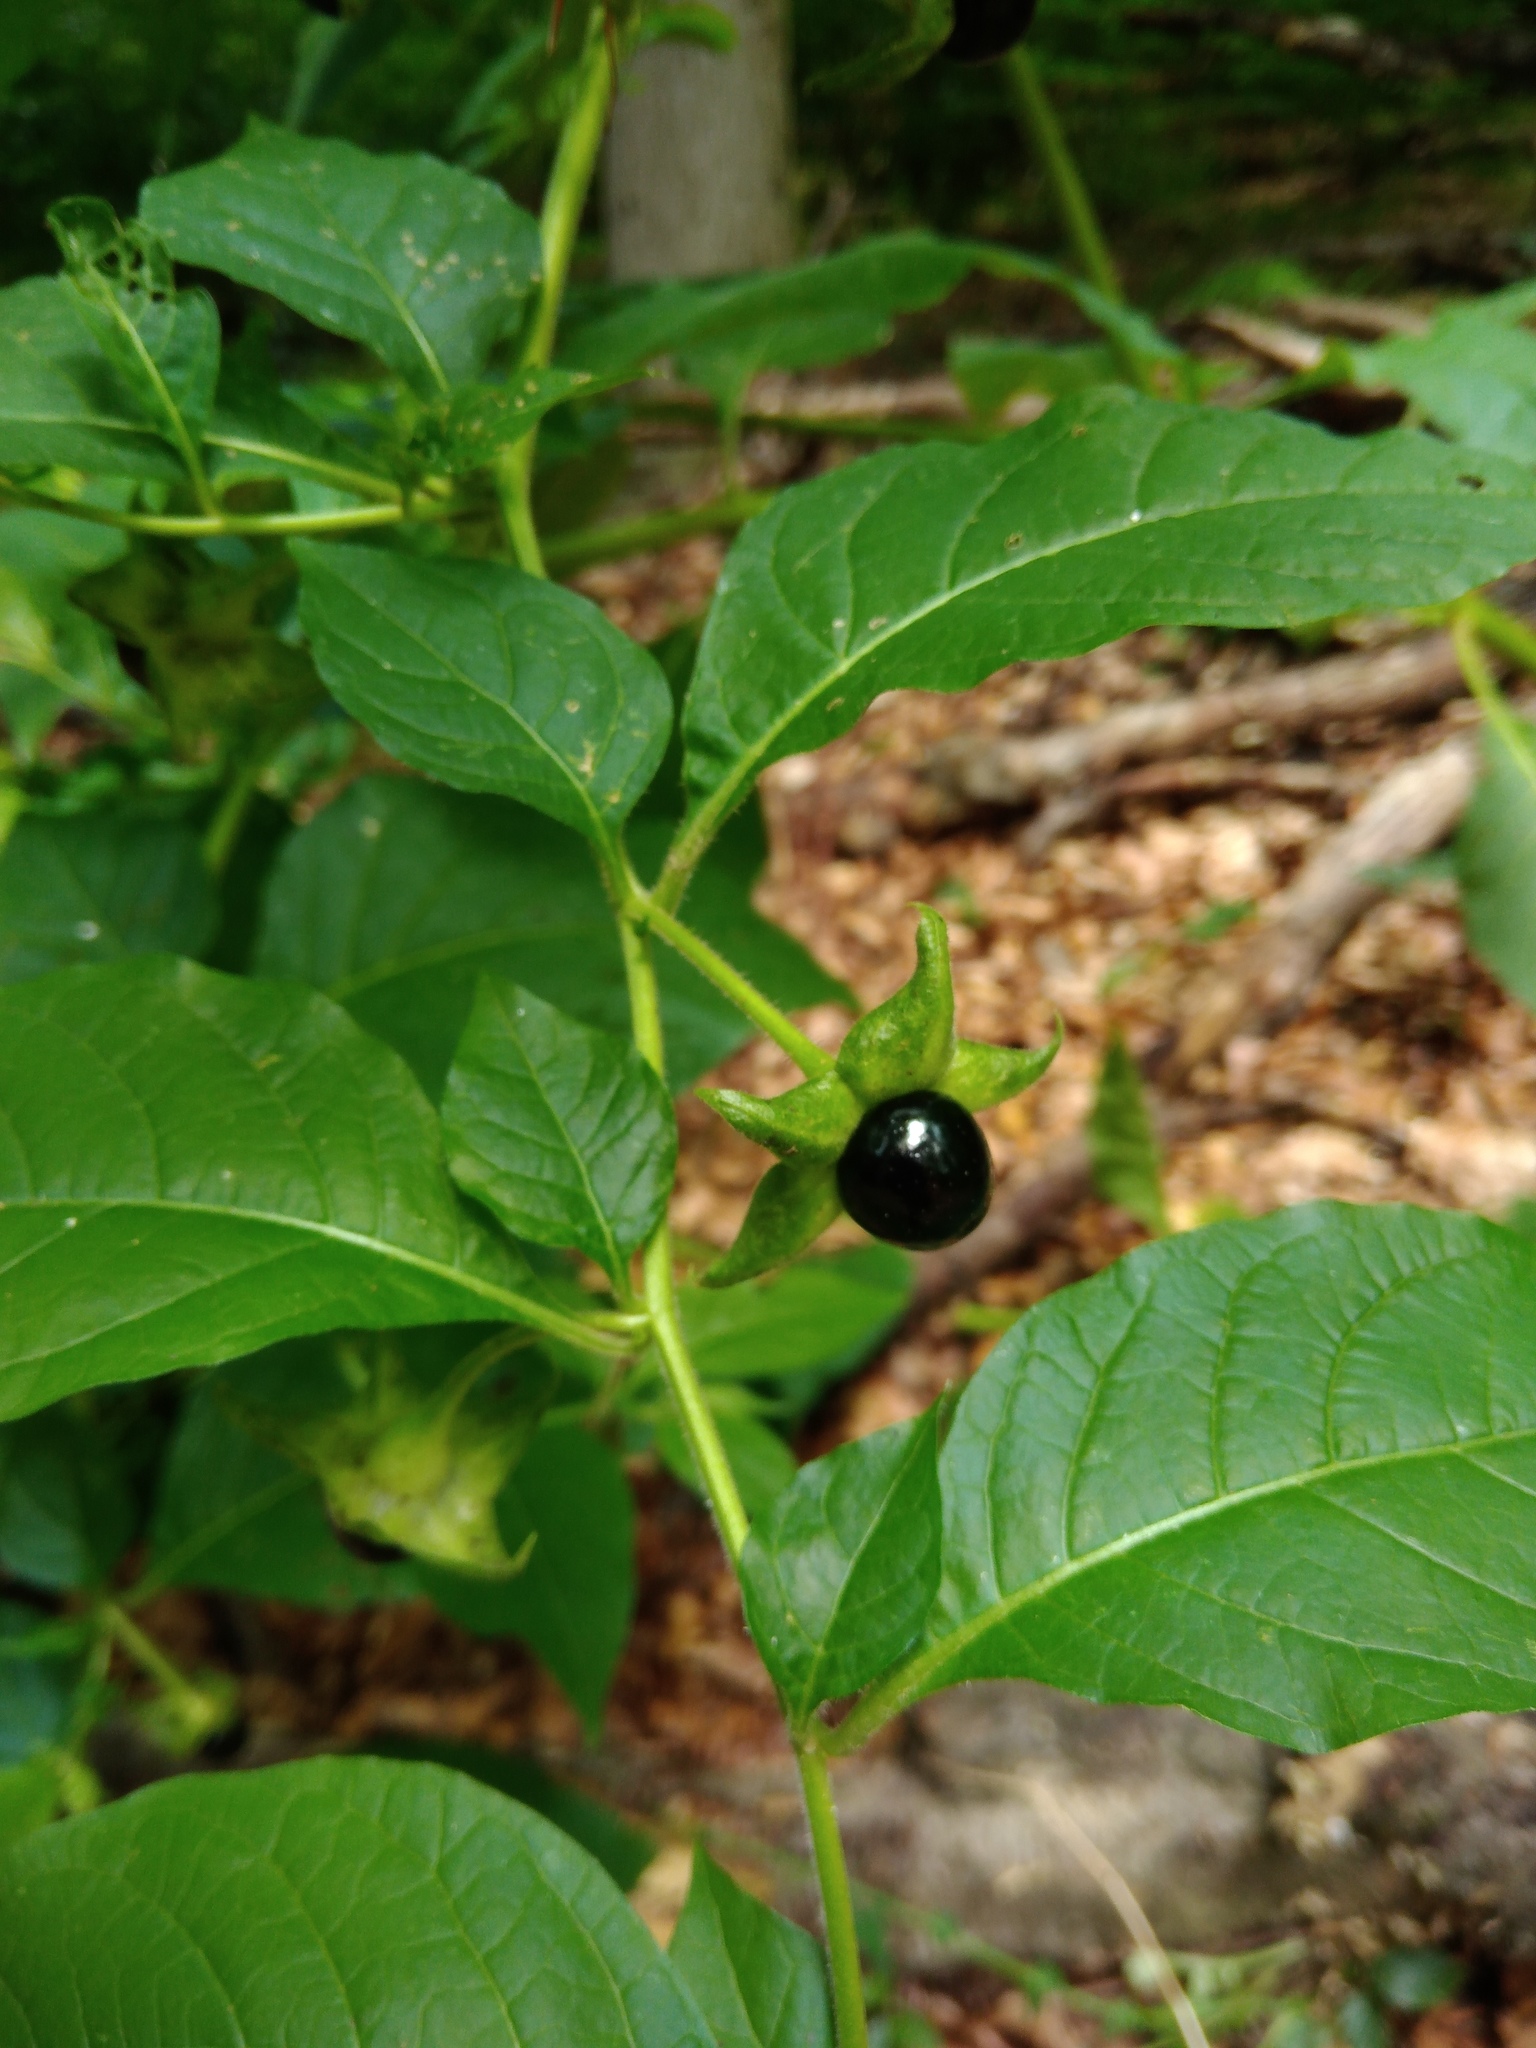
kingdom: Plantae
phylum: Tracheophyta
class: Magnoliopsida
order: Solanales
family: Solanaceae
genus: Atropa
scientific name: Atropa belladonna
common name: Deadly nightshade
